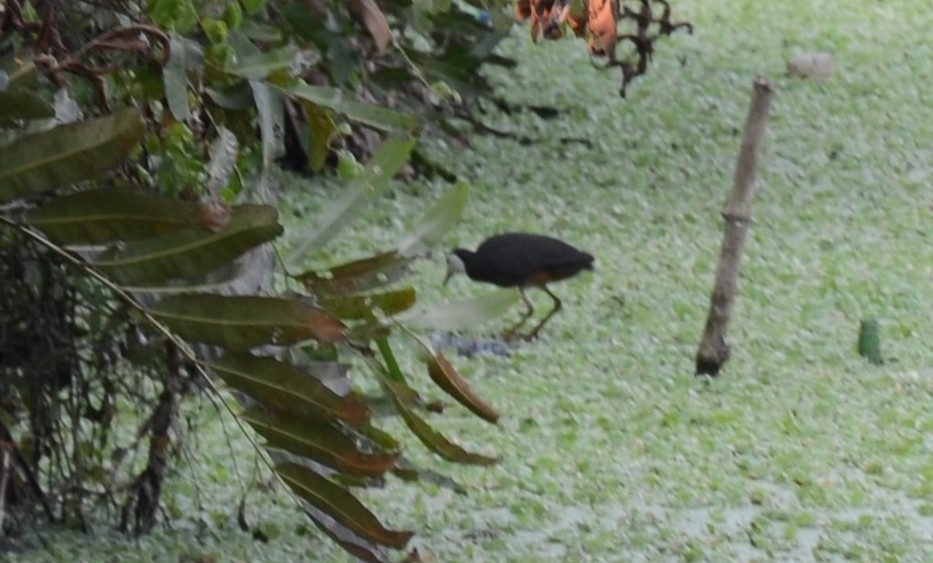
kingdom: Animalia
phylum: Chordata
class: Aves
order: Gruiformes
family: Rallidae
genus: Amaurornis
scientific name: Amaurornis phoenicurus
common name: White-breasted waterhen
